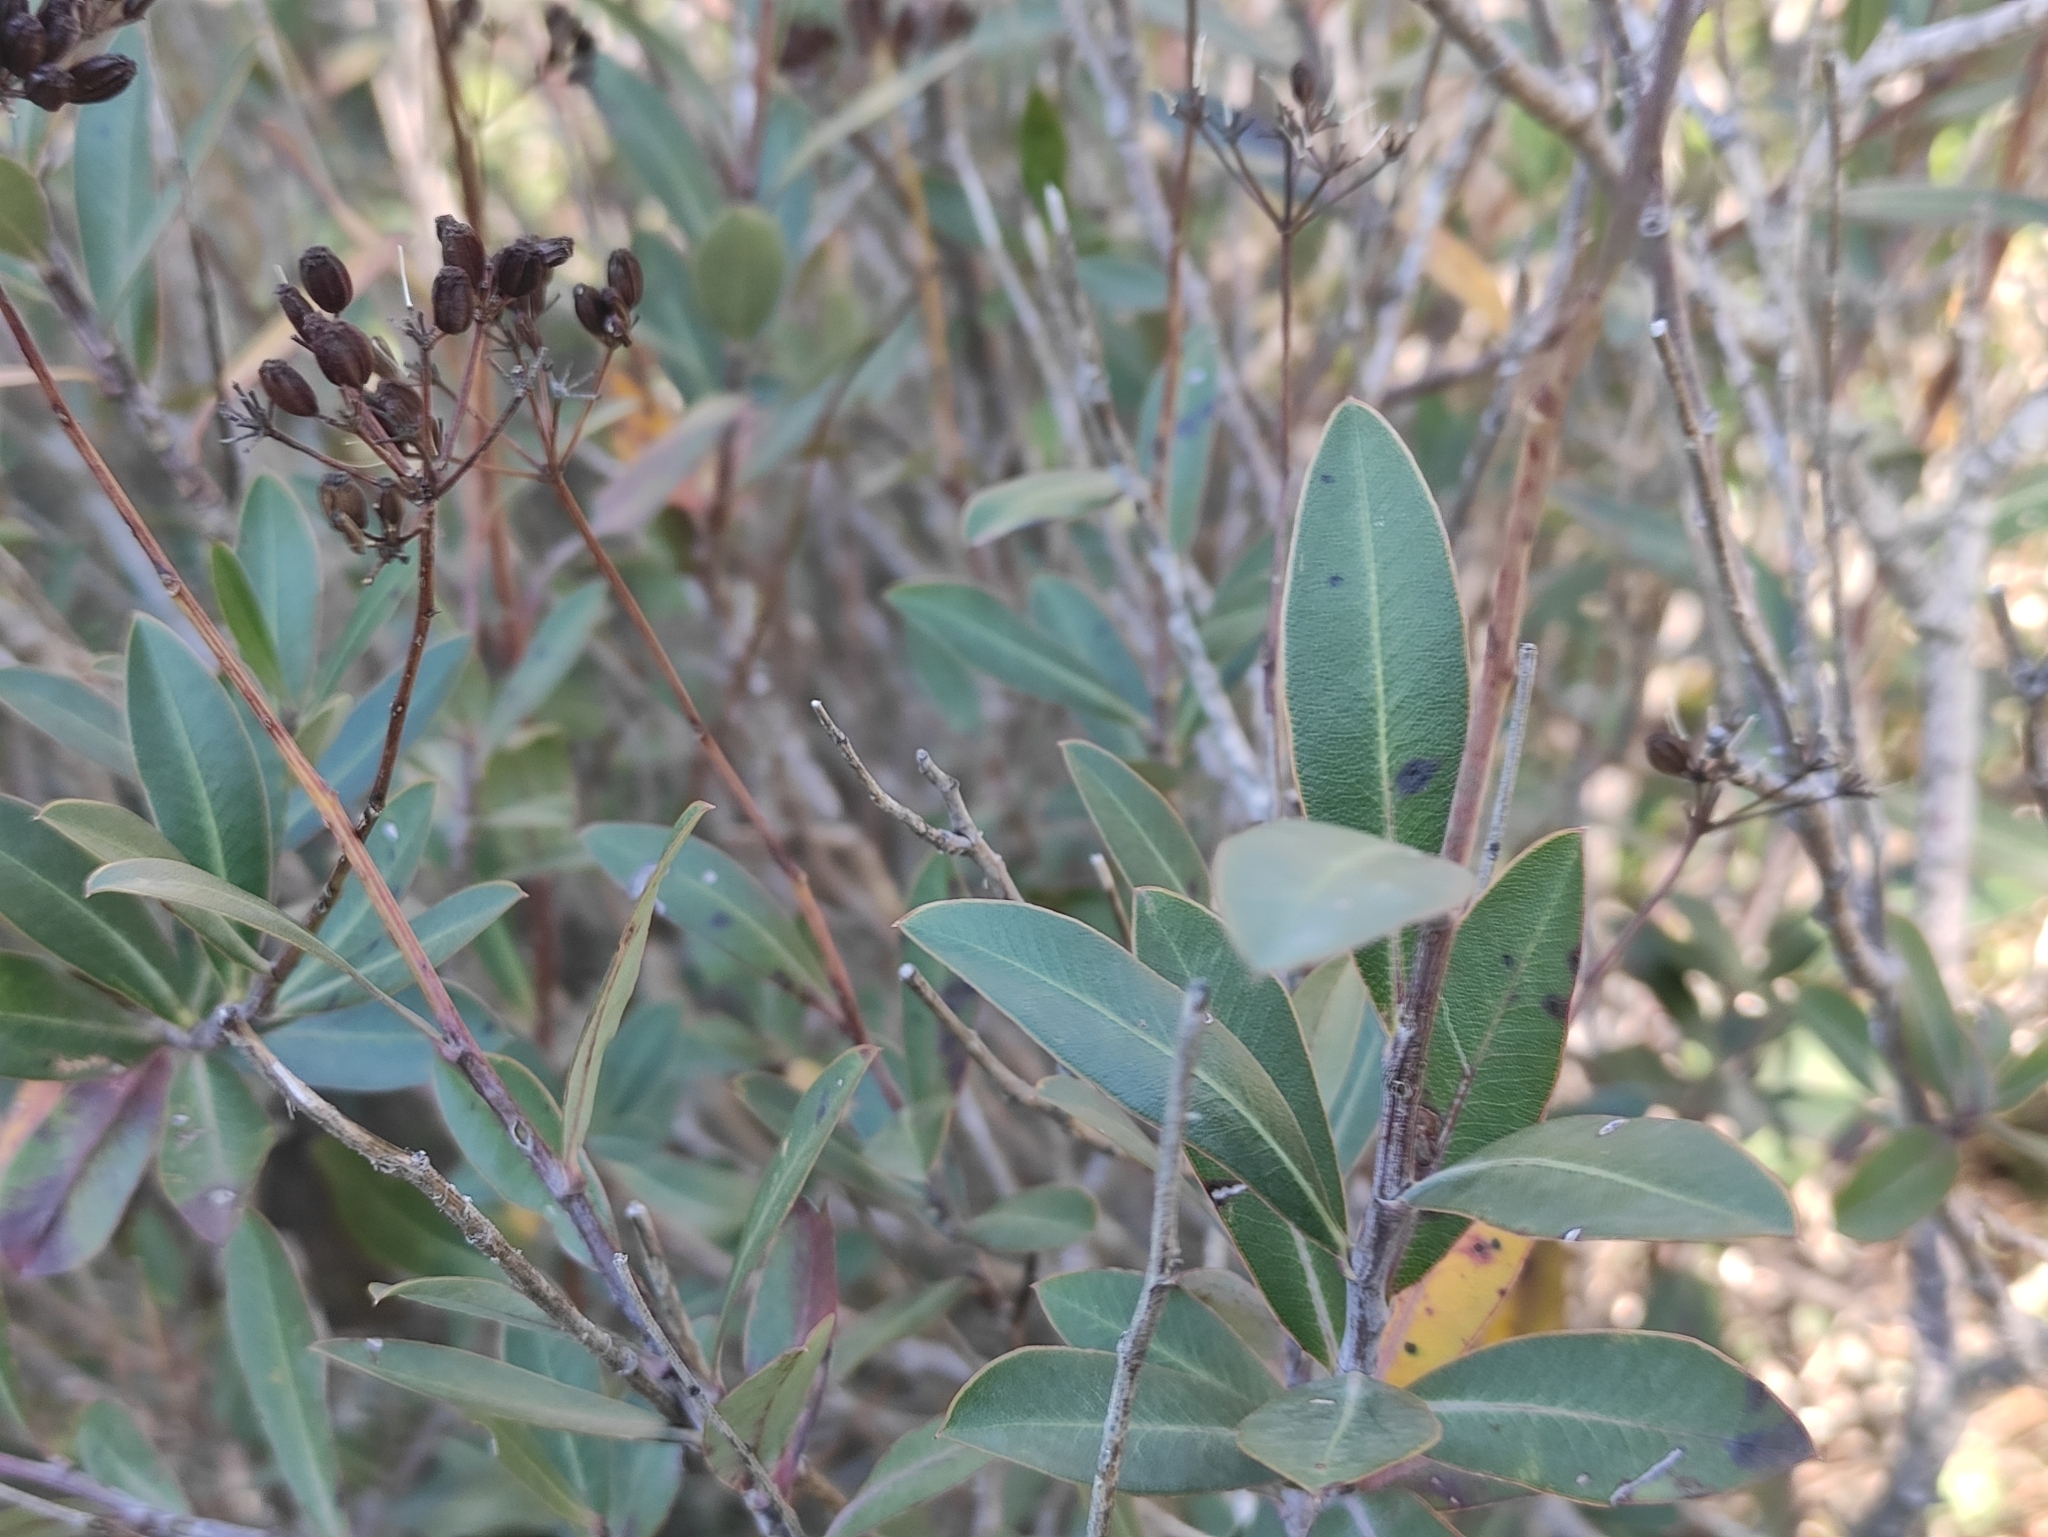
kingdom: Plantae
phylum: Tracheophyta
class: Magnoliopsida
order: Apiales
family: Apiaceae
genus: Bupleurum
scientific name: Bupleurum fruticosum
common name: Shrubby hare's-ear
